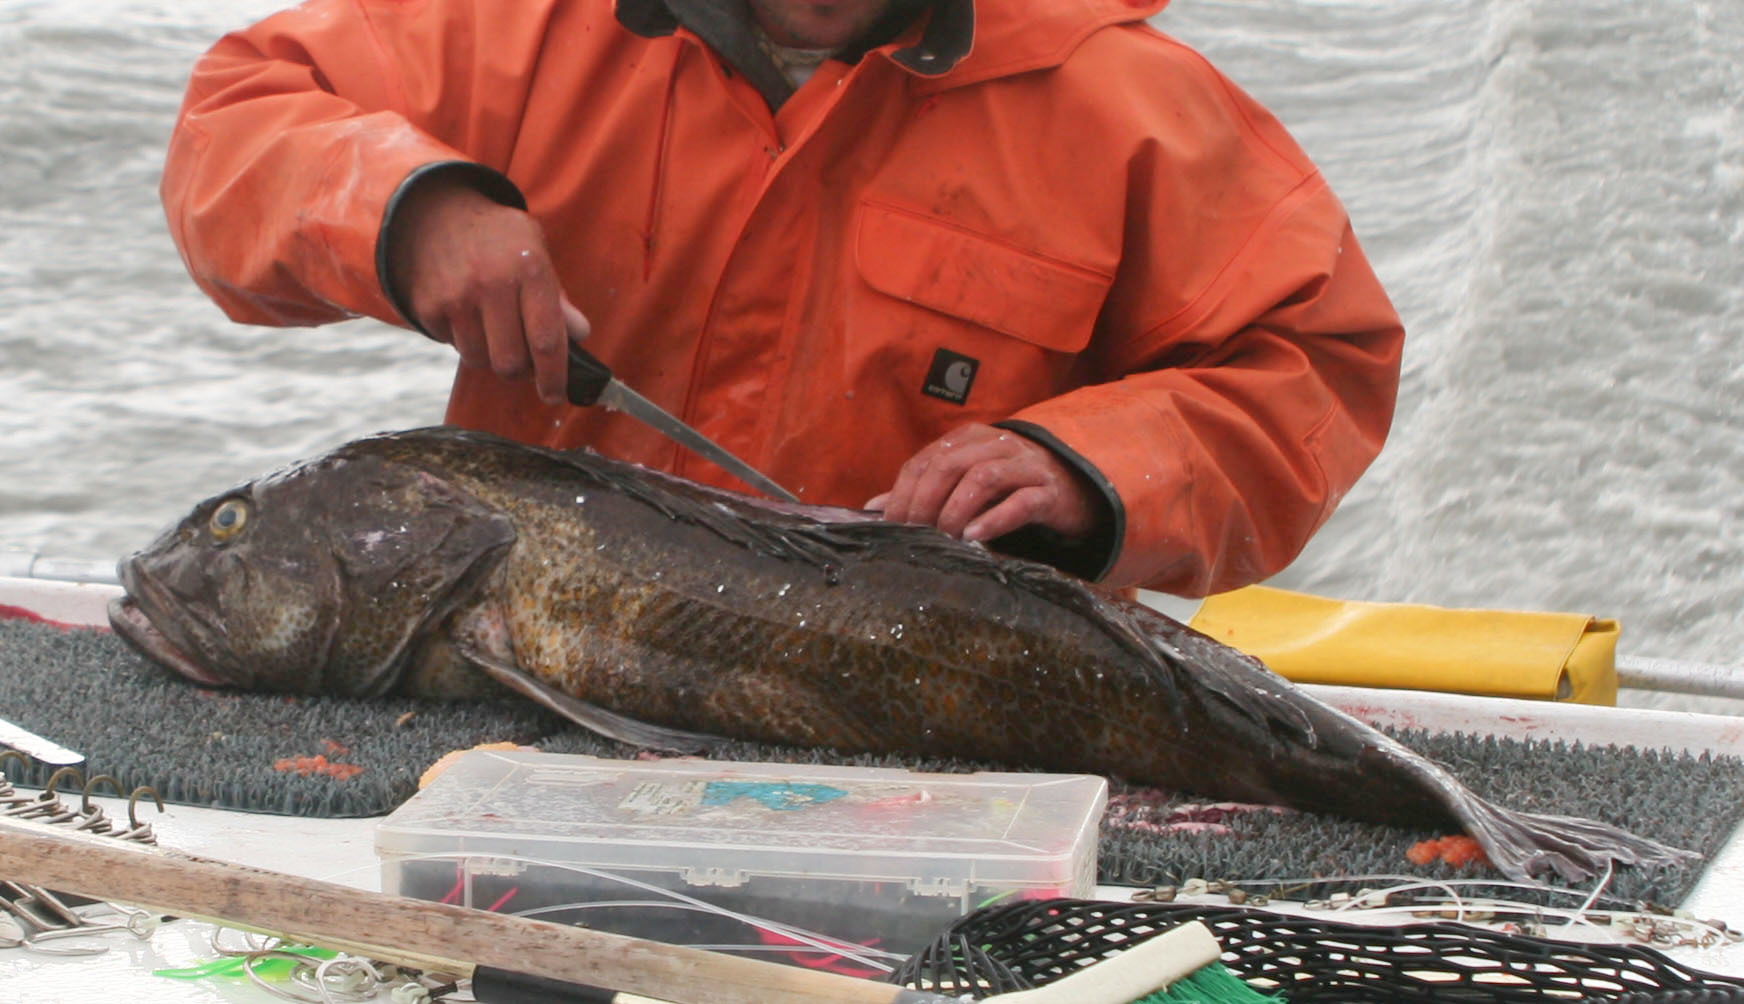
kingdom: Animalia
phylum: Chordata
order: Scorpaeniformes
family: Hexagrammidae
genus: Ophiodon
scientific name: Ophiodon elongatus
